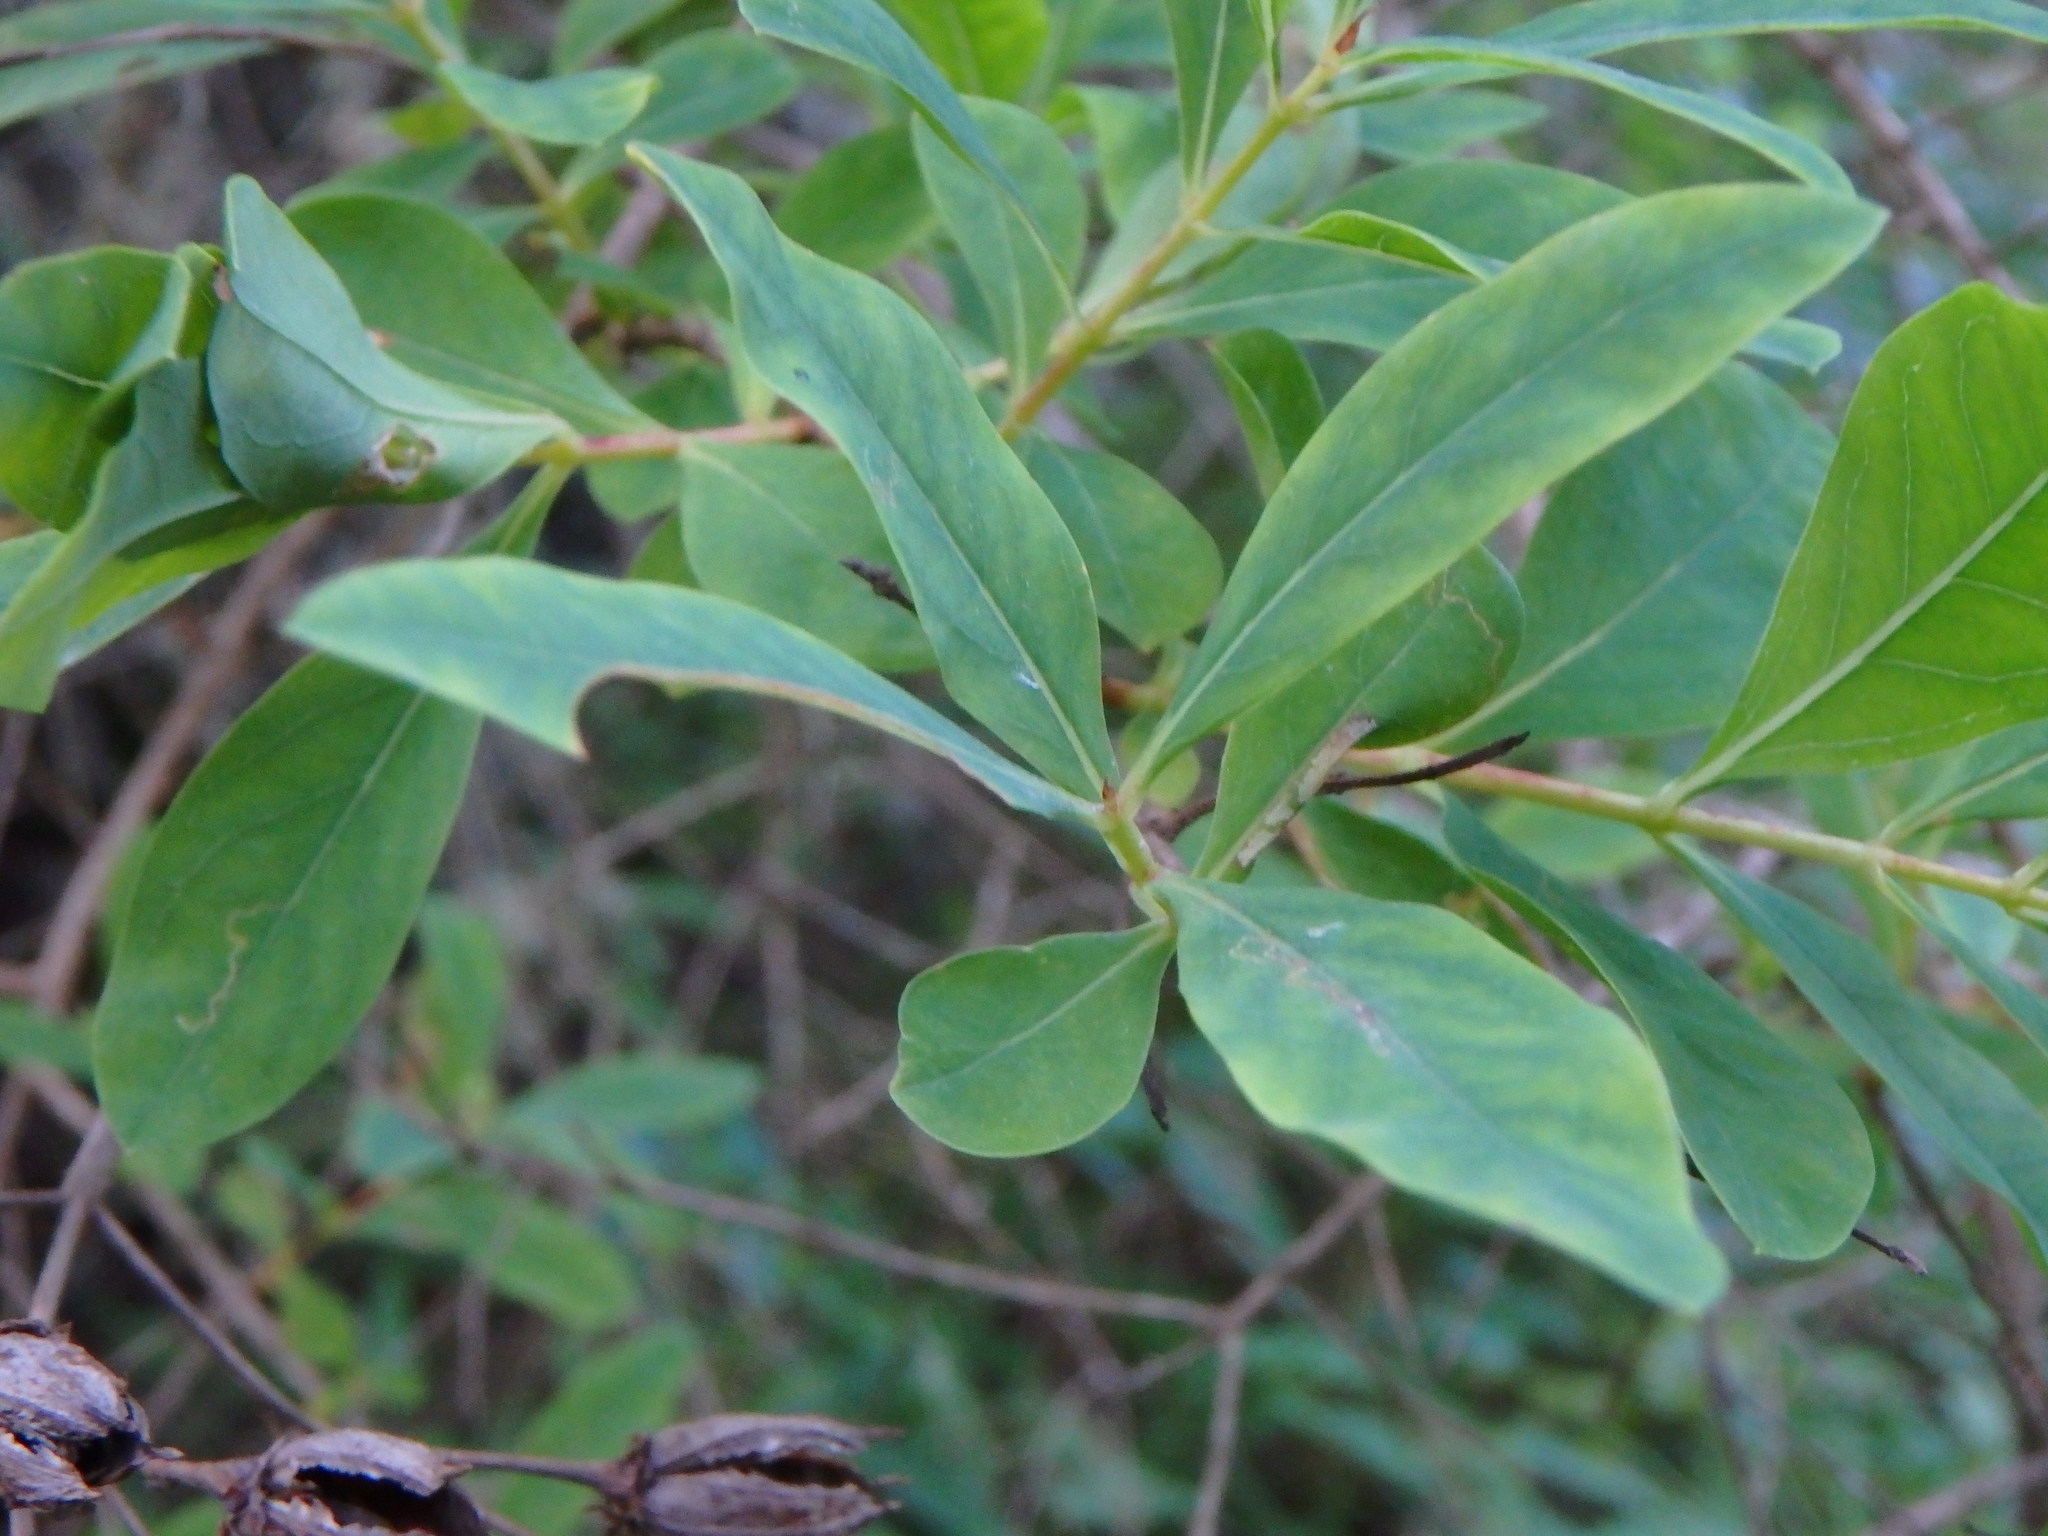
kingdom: Plantae
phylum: Tracheophyta
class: Magnoliopsida
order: Malpighiales
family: Hypericaceae
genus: Hypericum
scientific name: Hypericum canariense
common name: Canary island st. johnswort
